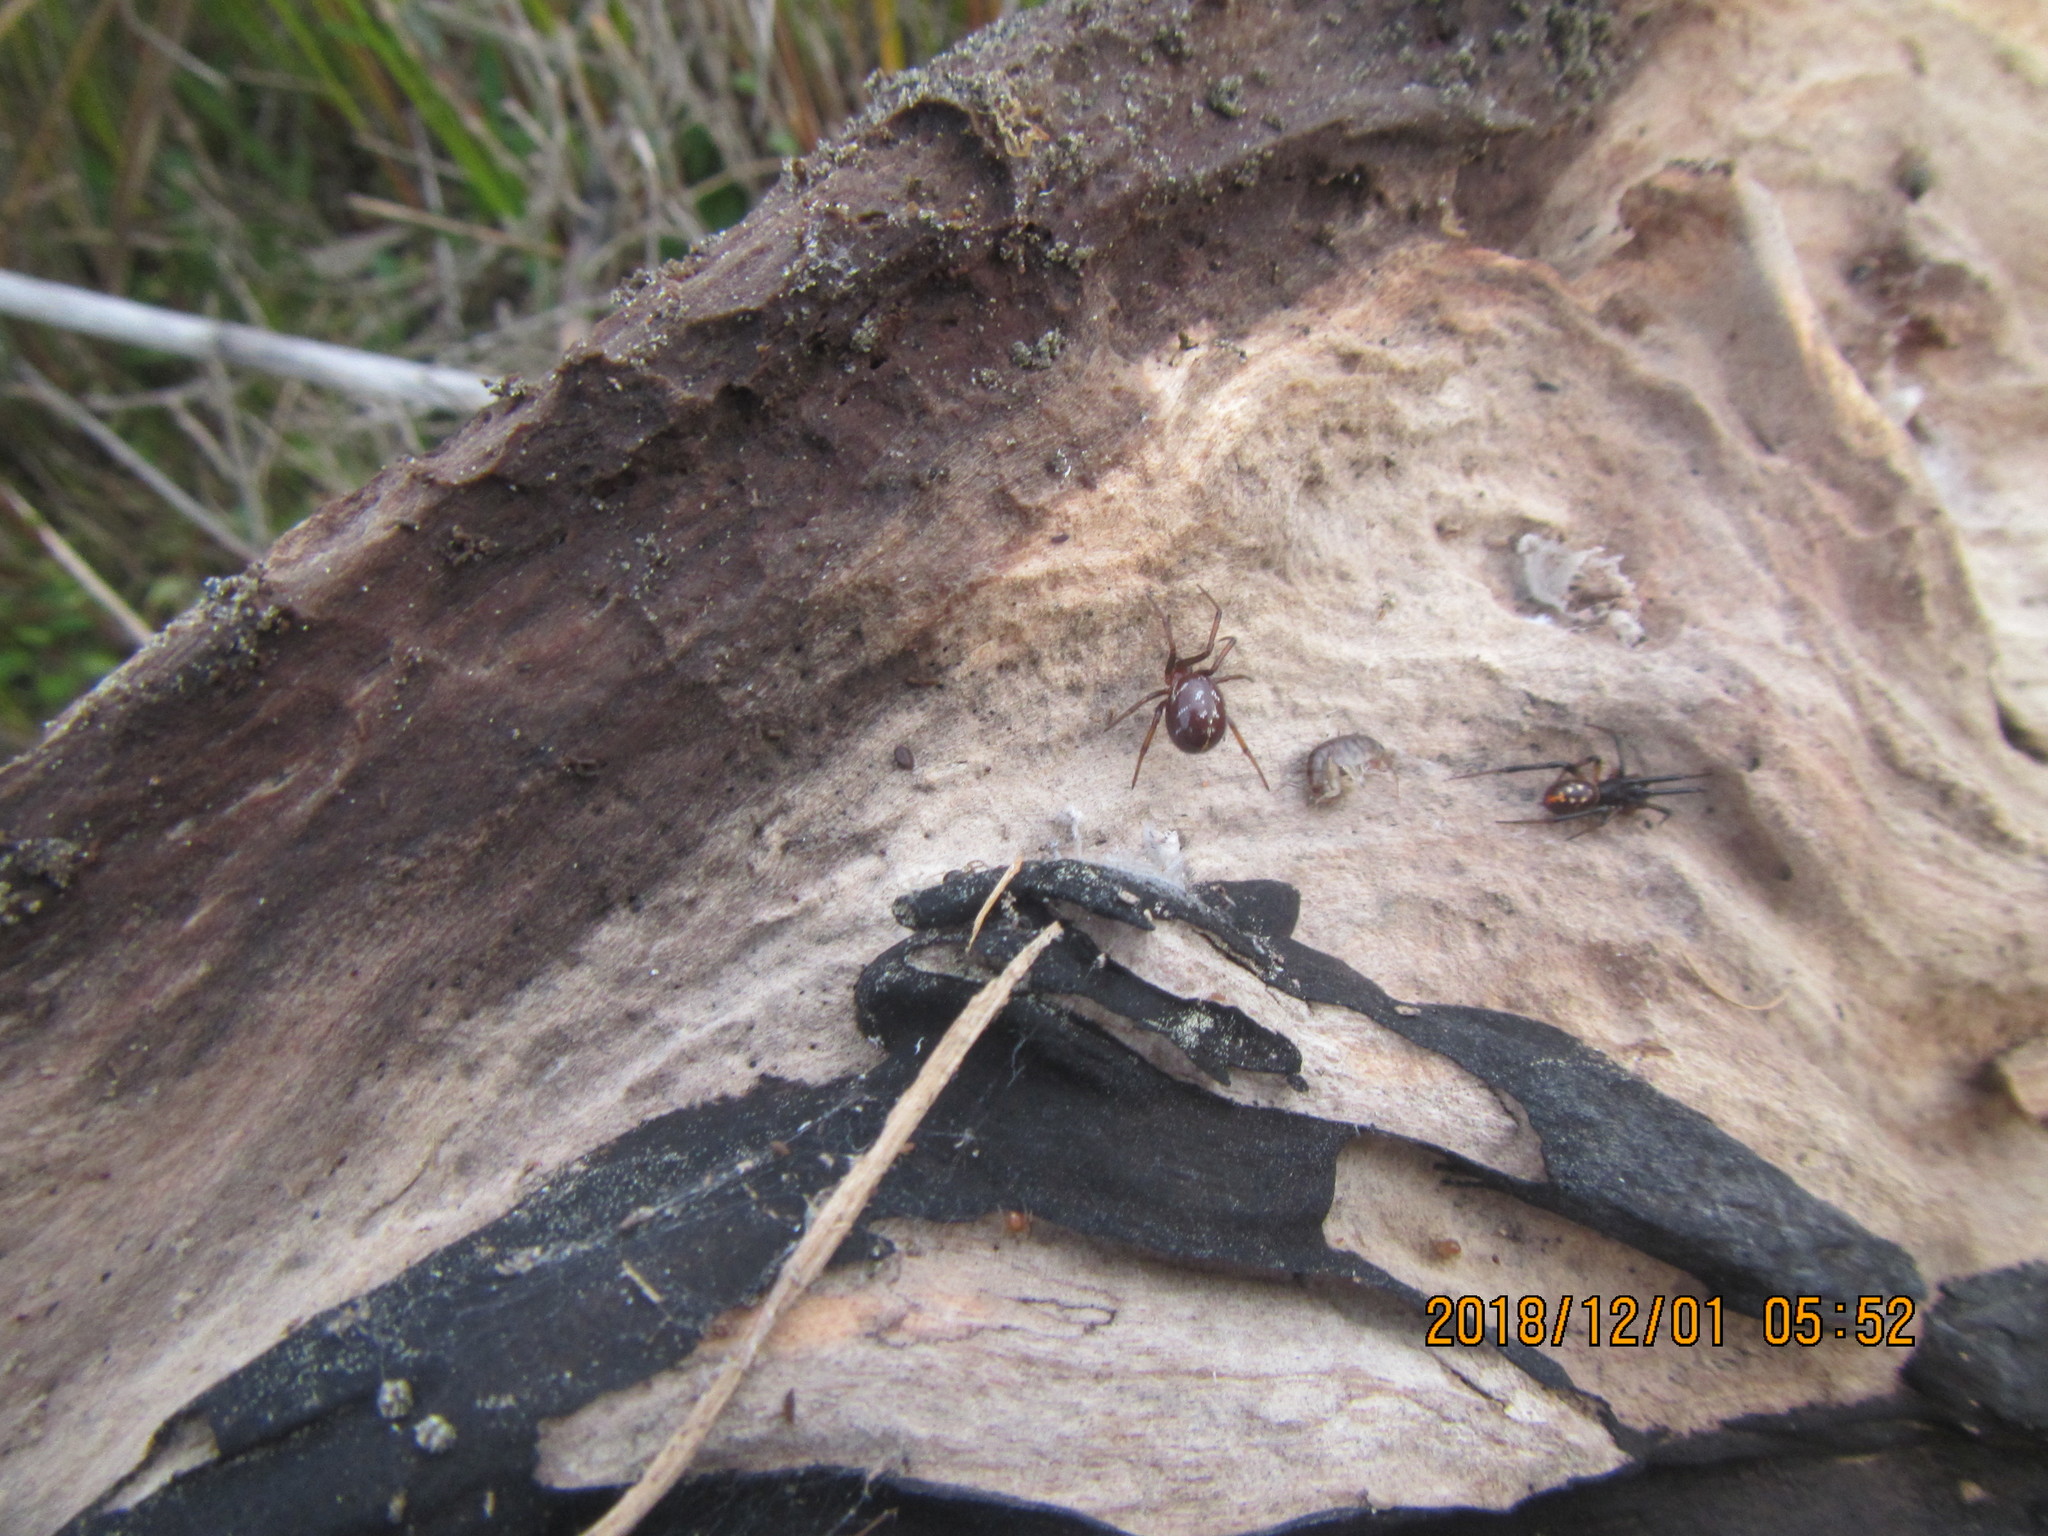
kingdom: Animalia
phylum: Arthropoda
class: Arachnida
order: Araneae
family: Theridiidae
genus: Steatoda
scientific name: Steatoda capensis
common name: Cobweb weaver
